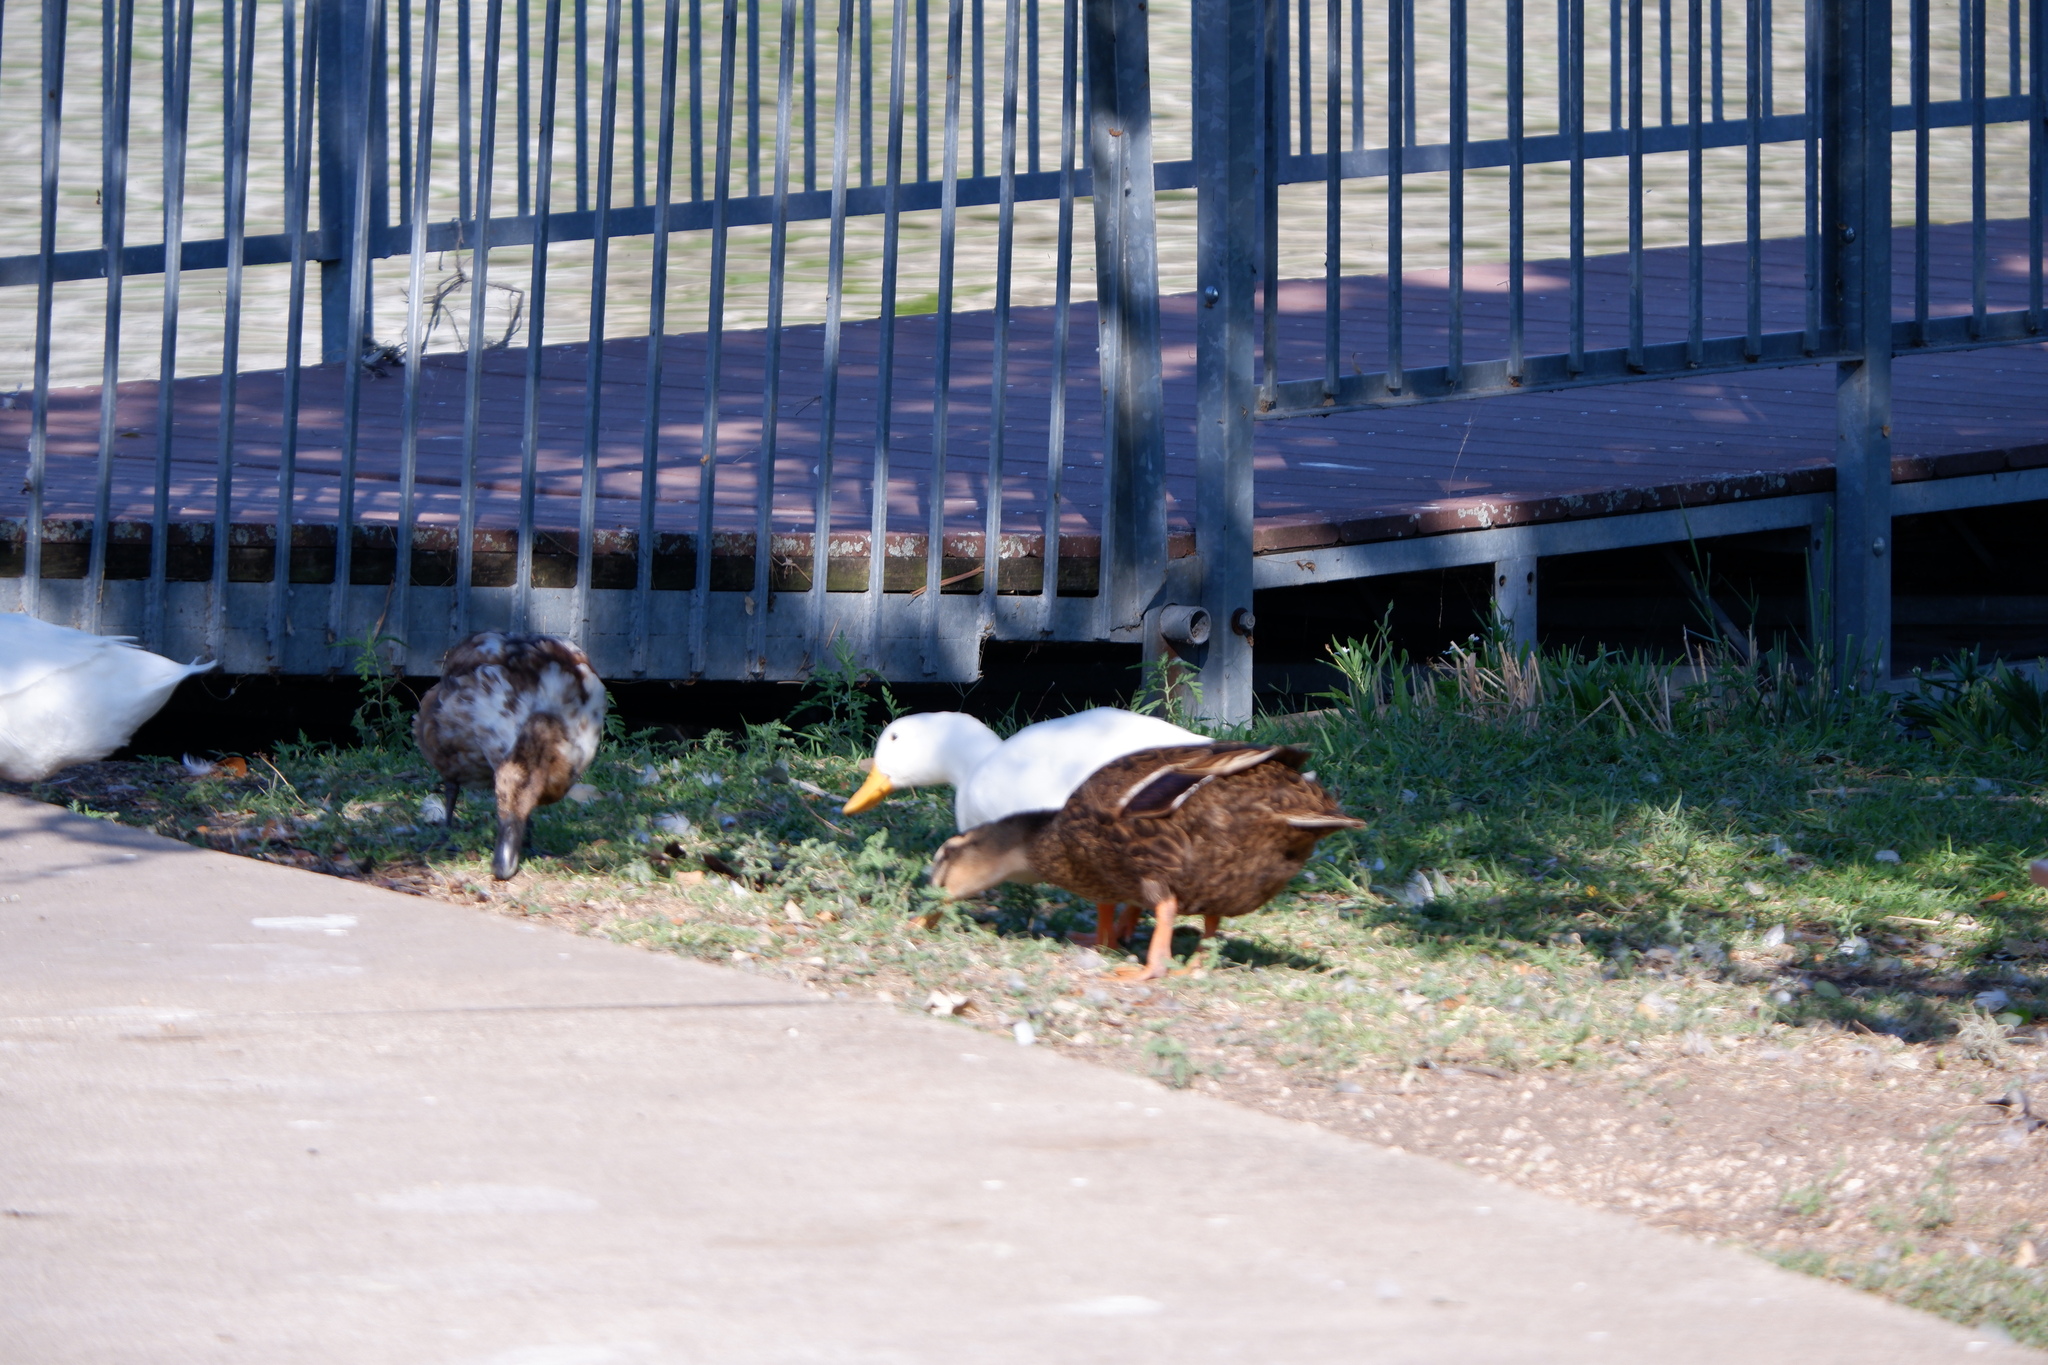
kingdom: Animalia
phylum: Chordata
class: Aves
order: Anseriformes
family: Anatidae
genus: Anas
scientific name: Anas platyrhynchos
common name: Mallard
